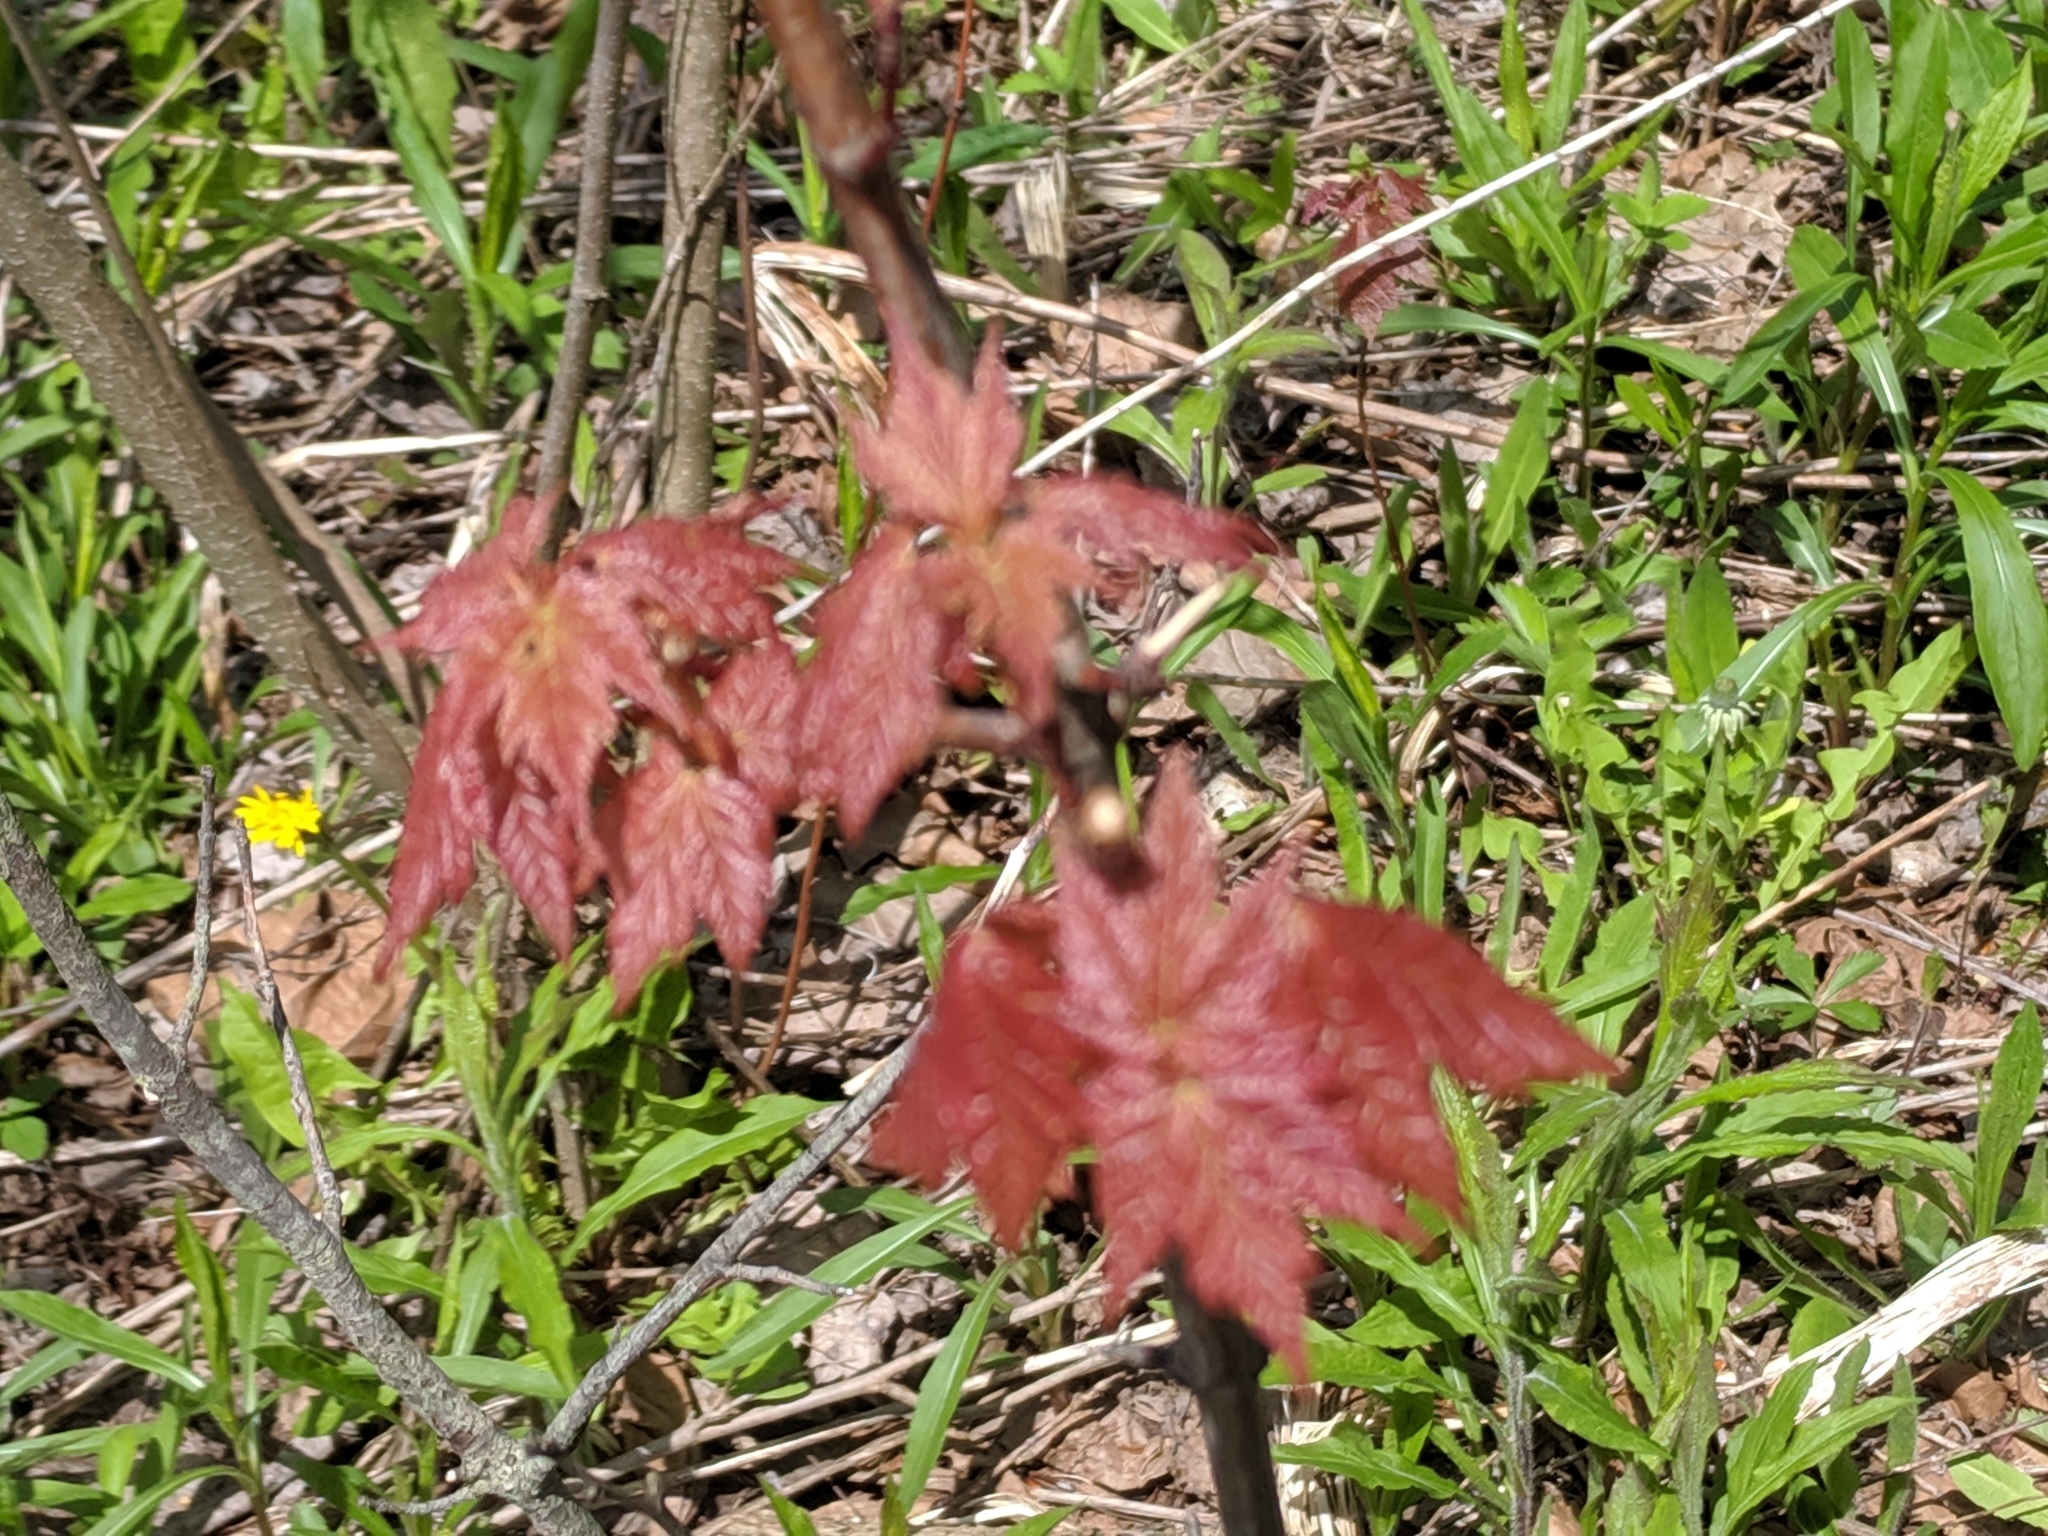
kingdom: Plantae
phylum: Tracheophyta
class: Magnoliopsida
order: Sapindales
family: Sapindaceae
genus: Acer
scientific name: Acer rubrum
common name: Red maple
